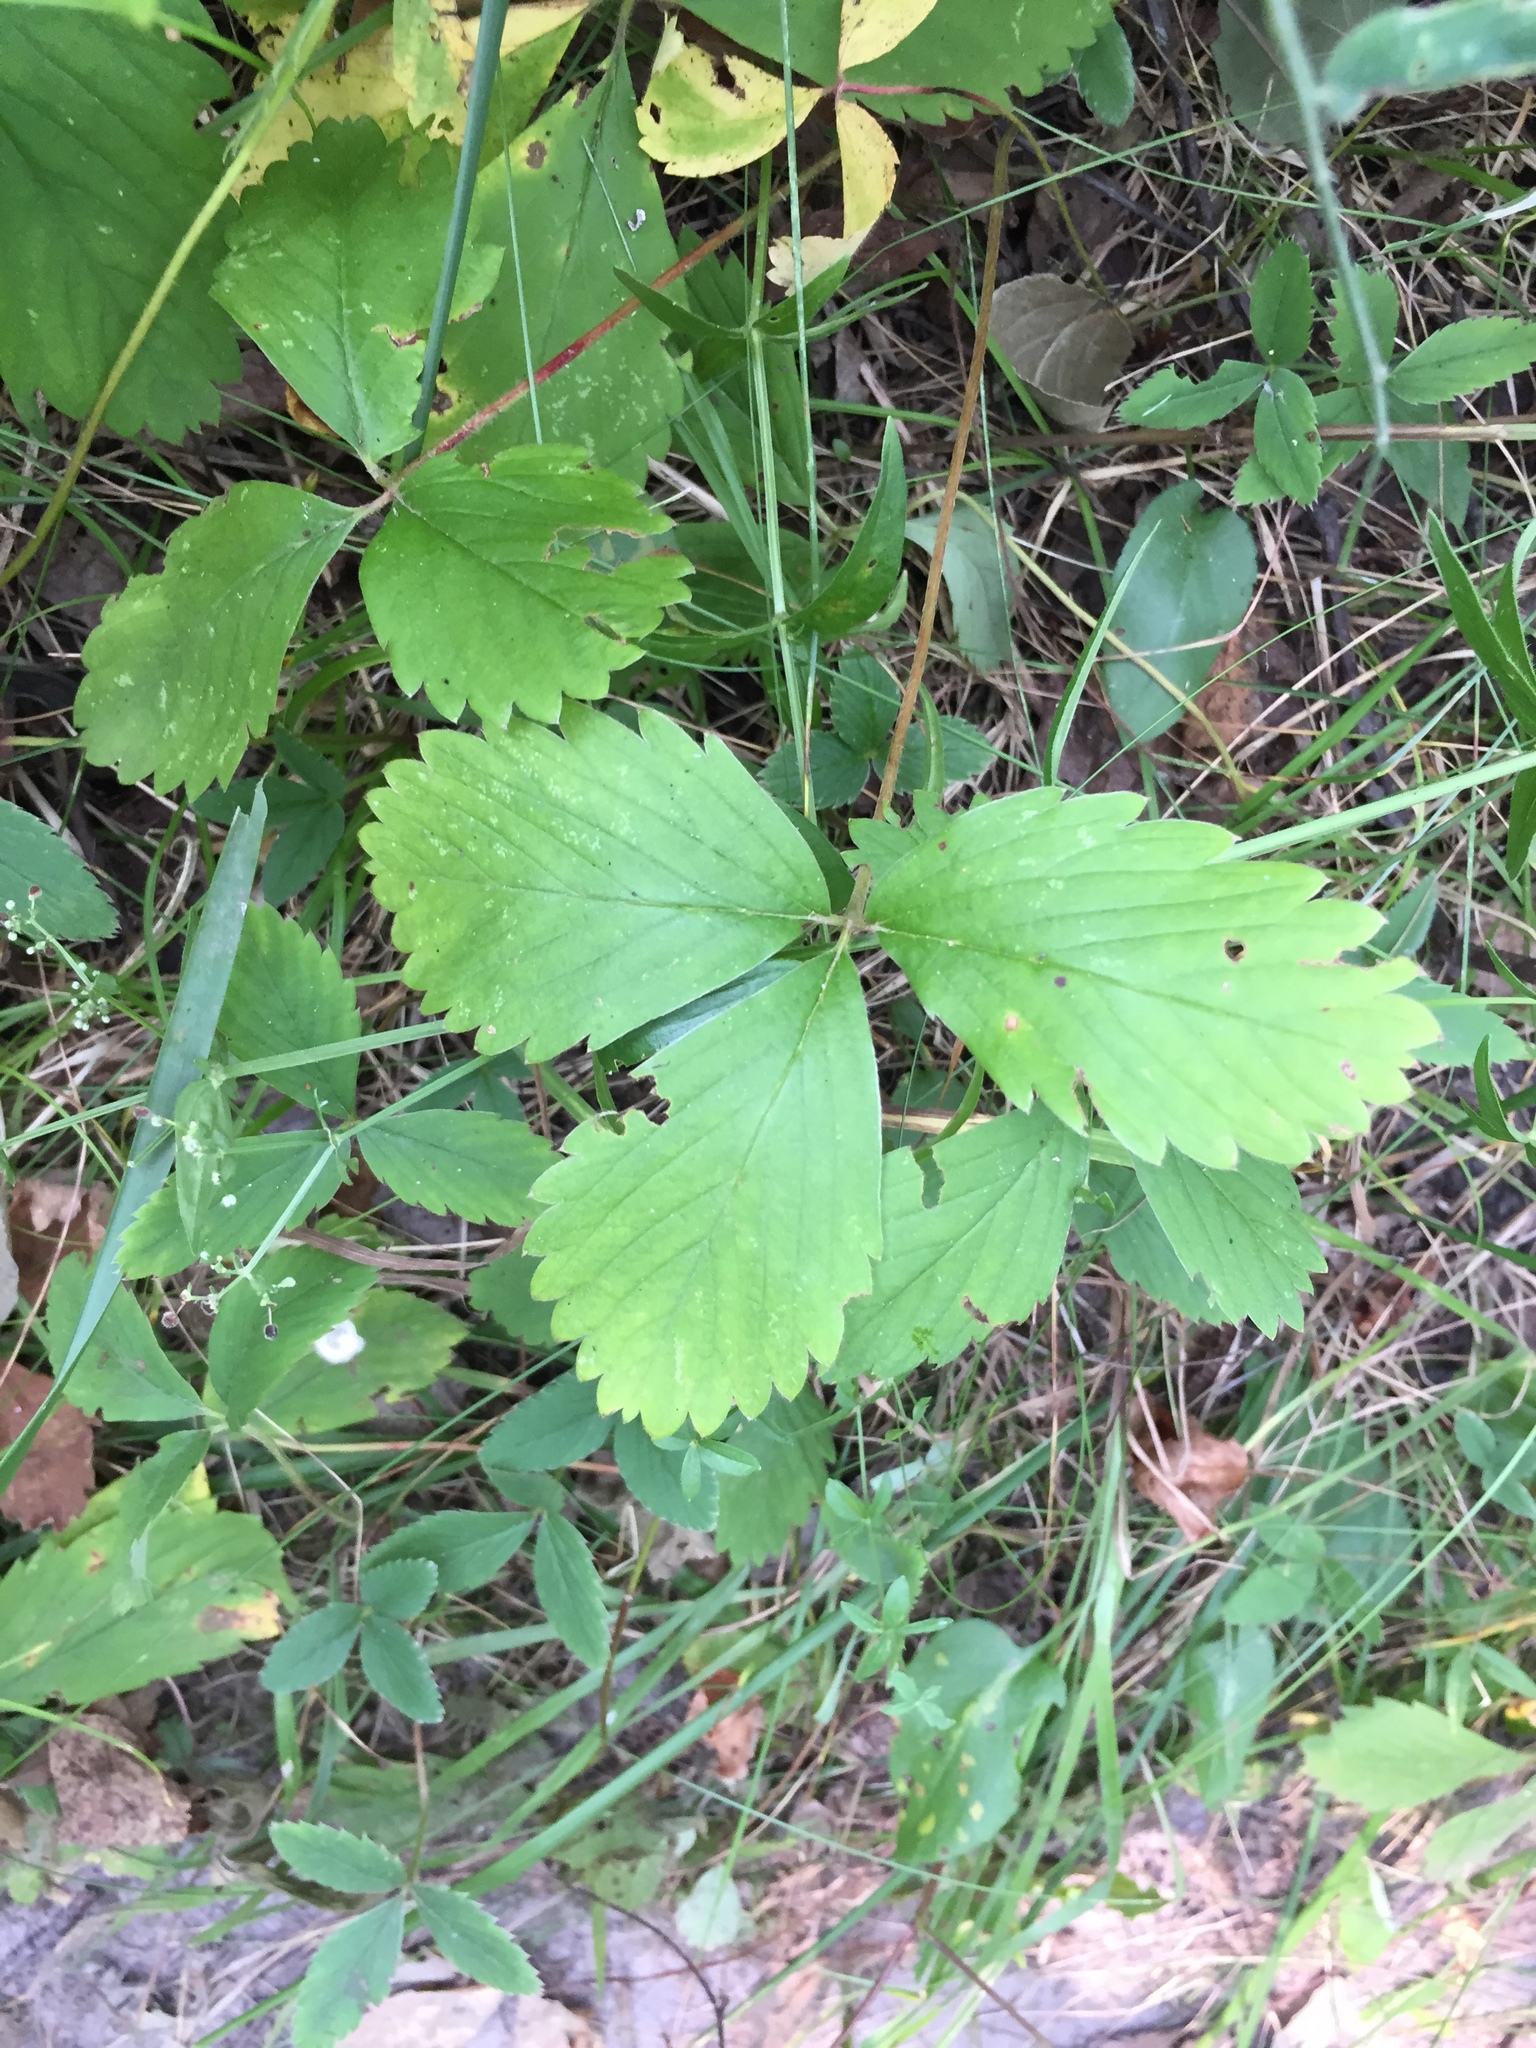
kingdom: Plantae
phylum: Tracheophyta
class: Magnoliopsida
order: Rosales
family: Rosaceae
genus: Fragaria
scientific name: Fragaria virginiana
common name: Thickleaved wild strawberry
